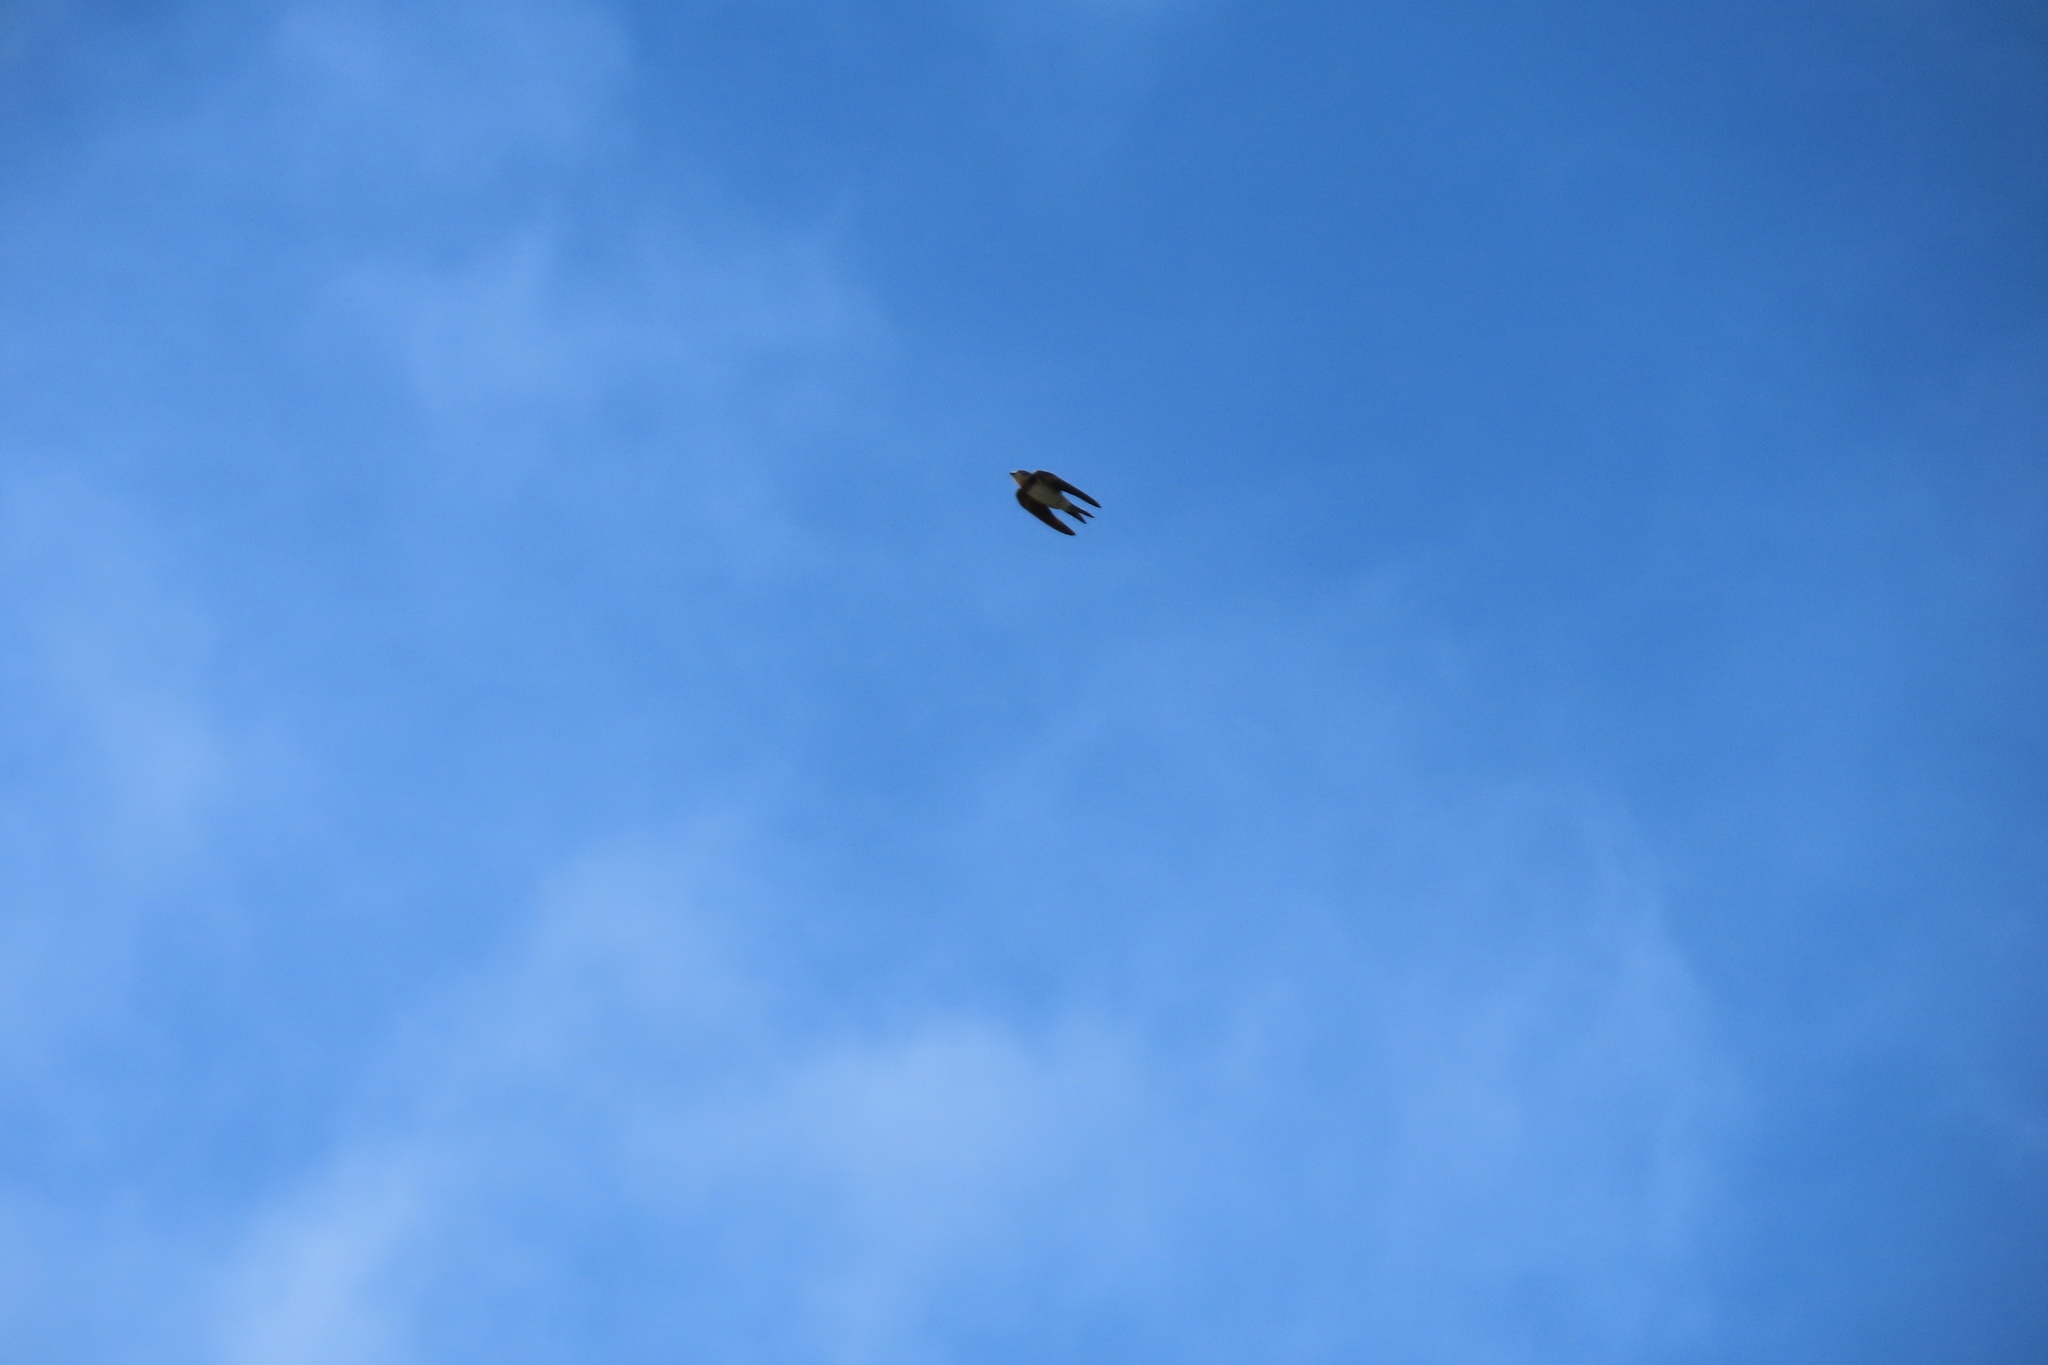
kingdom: Animalia
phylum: Chordata
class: Aves
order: Passeriformes
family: Hirundinidae
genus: Hirundo
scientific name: Hirundo rustica
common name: Barn swallow
